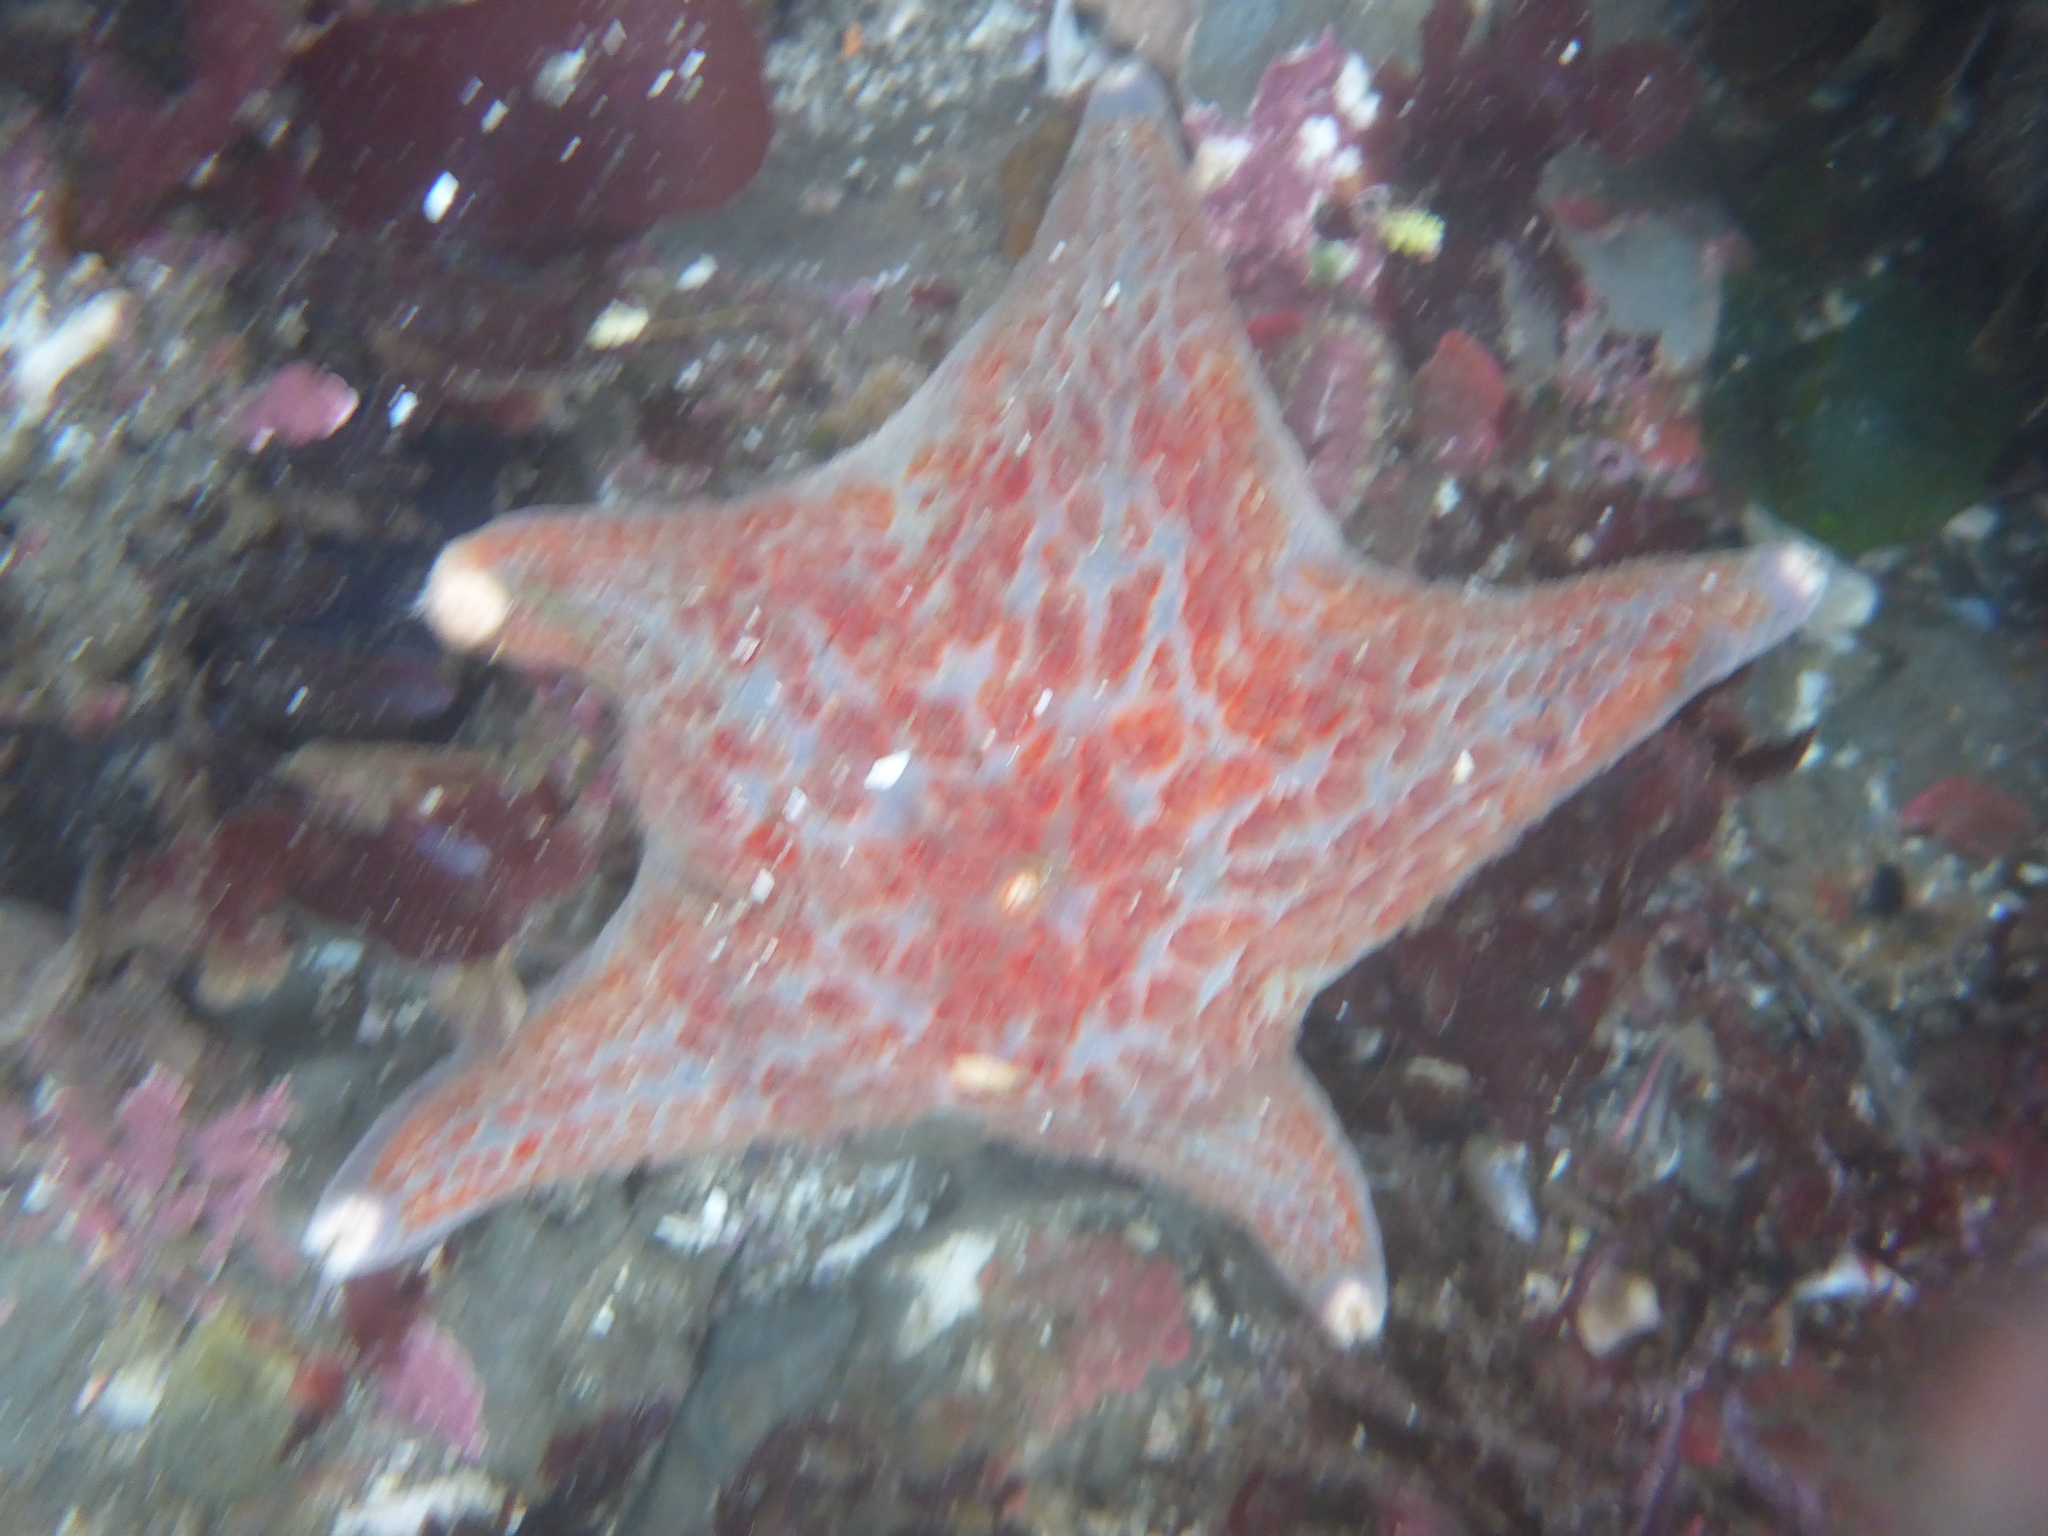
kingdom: Animalia
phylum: Echinodermata
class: Asteroidea
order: Valvatida
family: Asteropseidae
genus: Dermasterias
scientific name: Dermasterias imbricata
